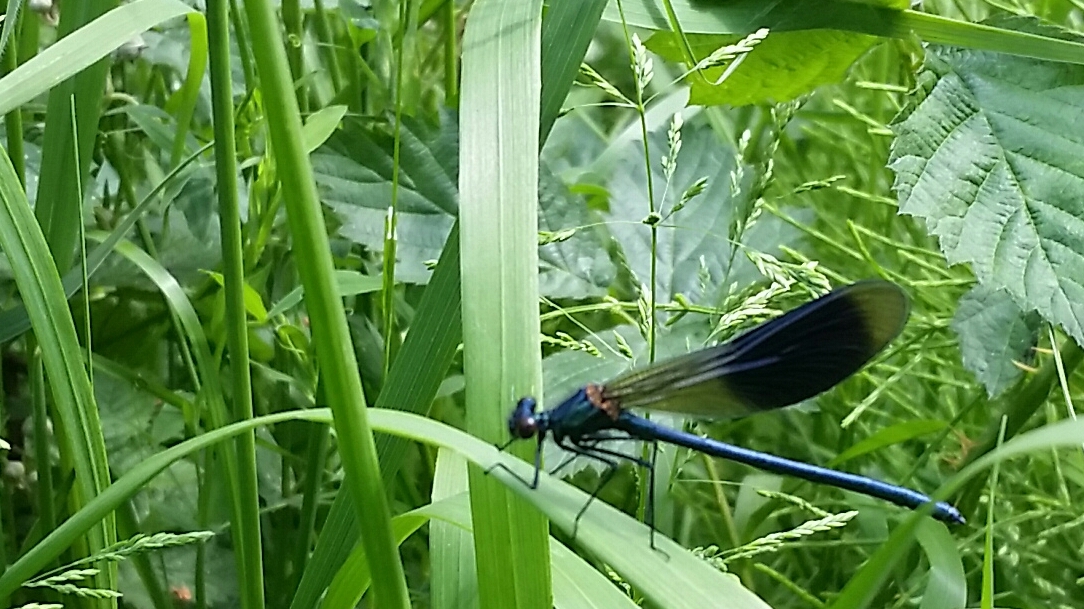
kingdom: Animalia
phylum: Arthropoda
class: Insecta
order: Odonata
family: Calopterygidae
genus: Calopteryx
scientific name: Calopteryx splendens
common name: Banded demoiselle
